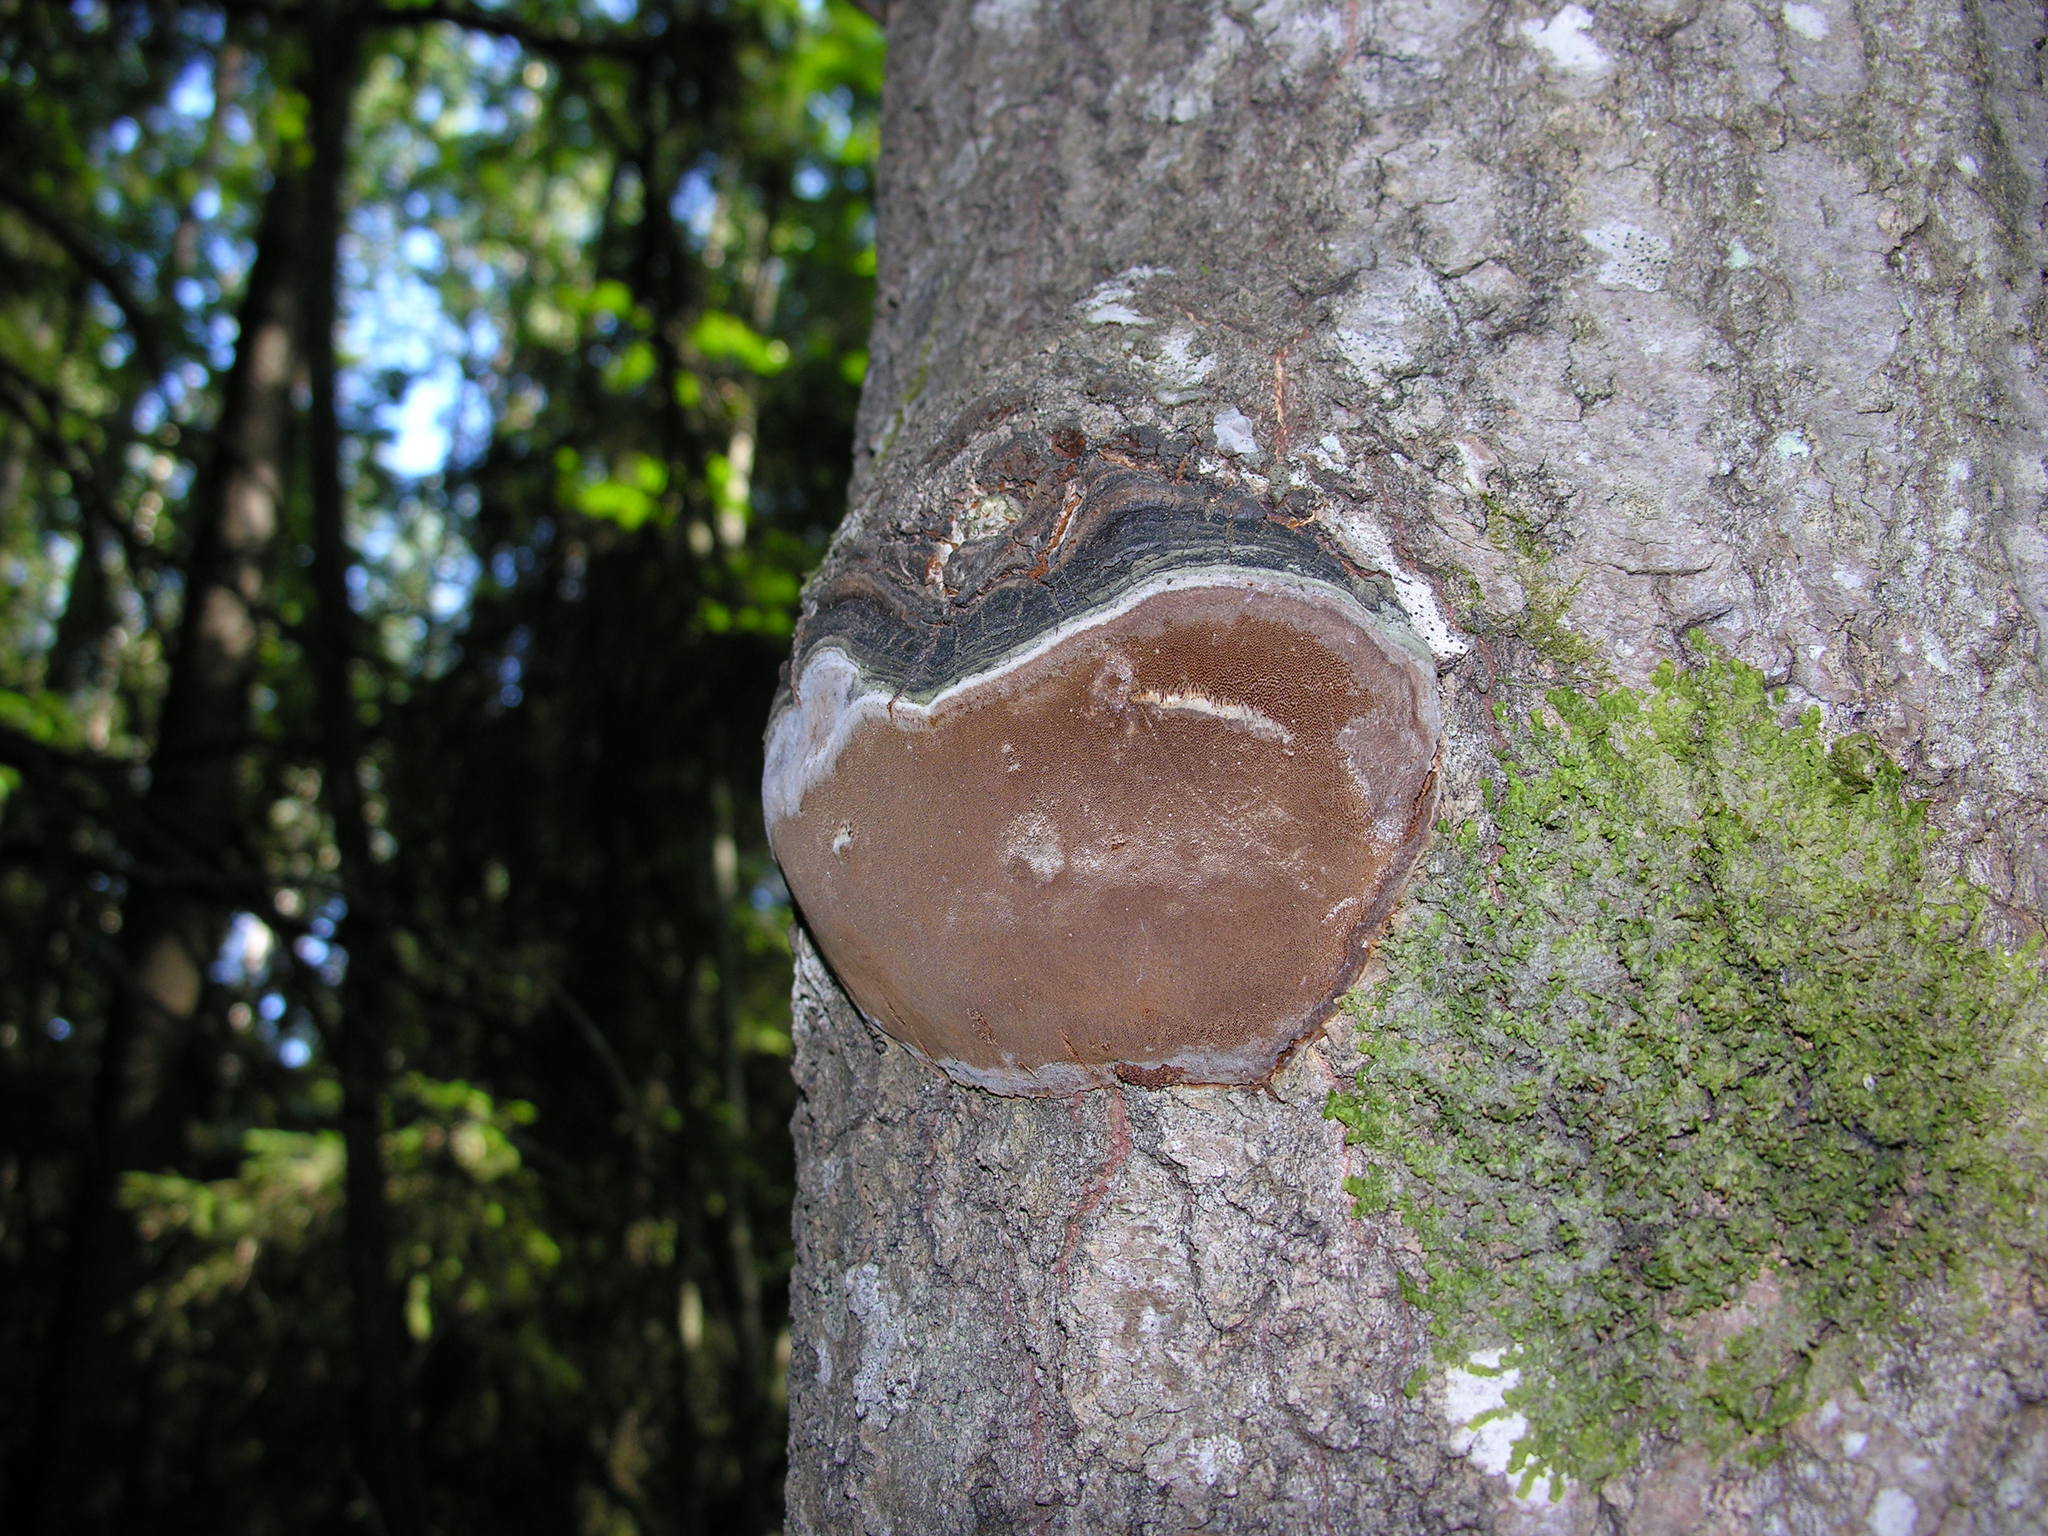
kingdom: Fungi
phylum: Basidiomycota
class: Agaricomycetes
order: Hymenochaetales
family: Hymenochaetaceae
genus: Phellinus
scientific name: Phellinus tremulae
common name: Aspen bracket
